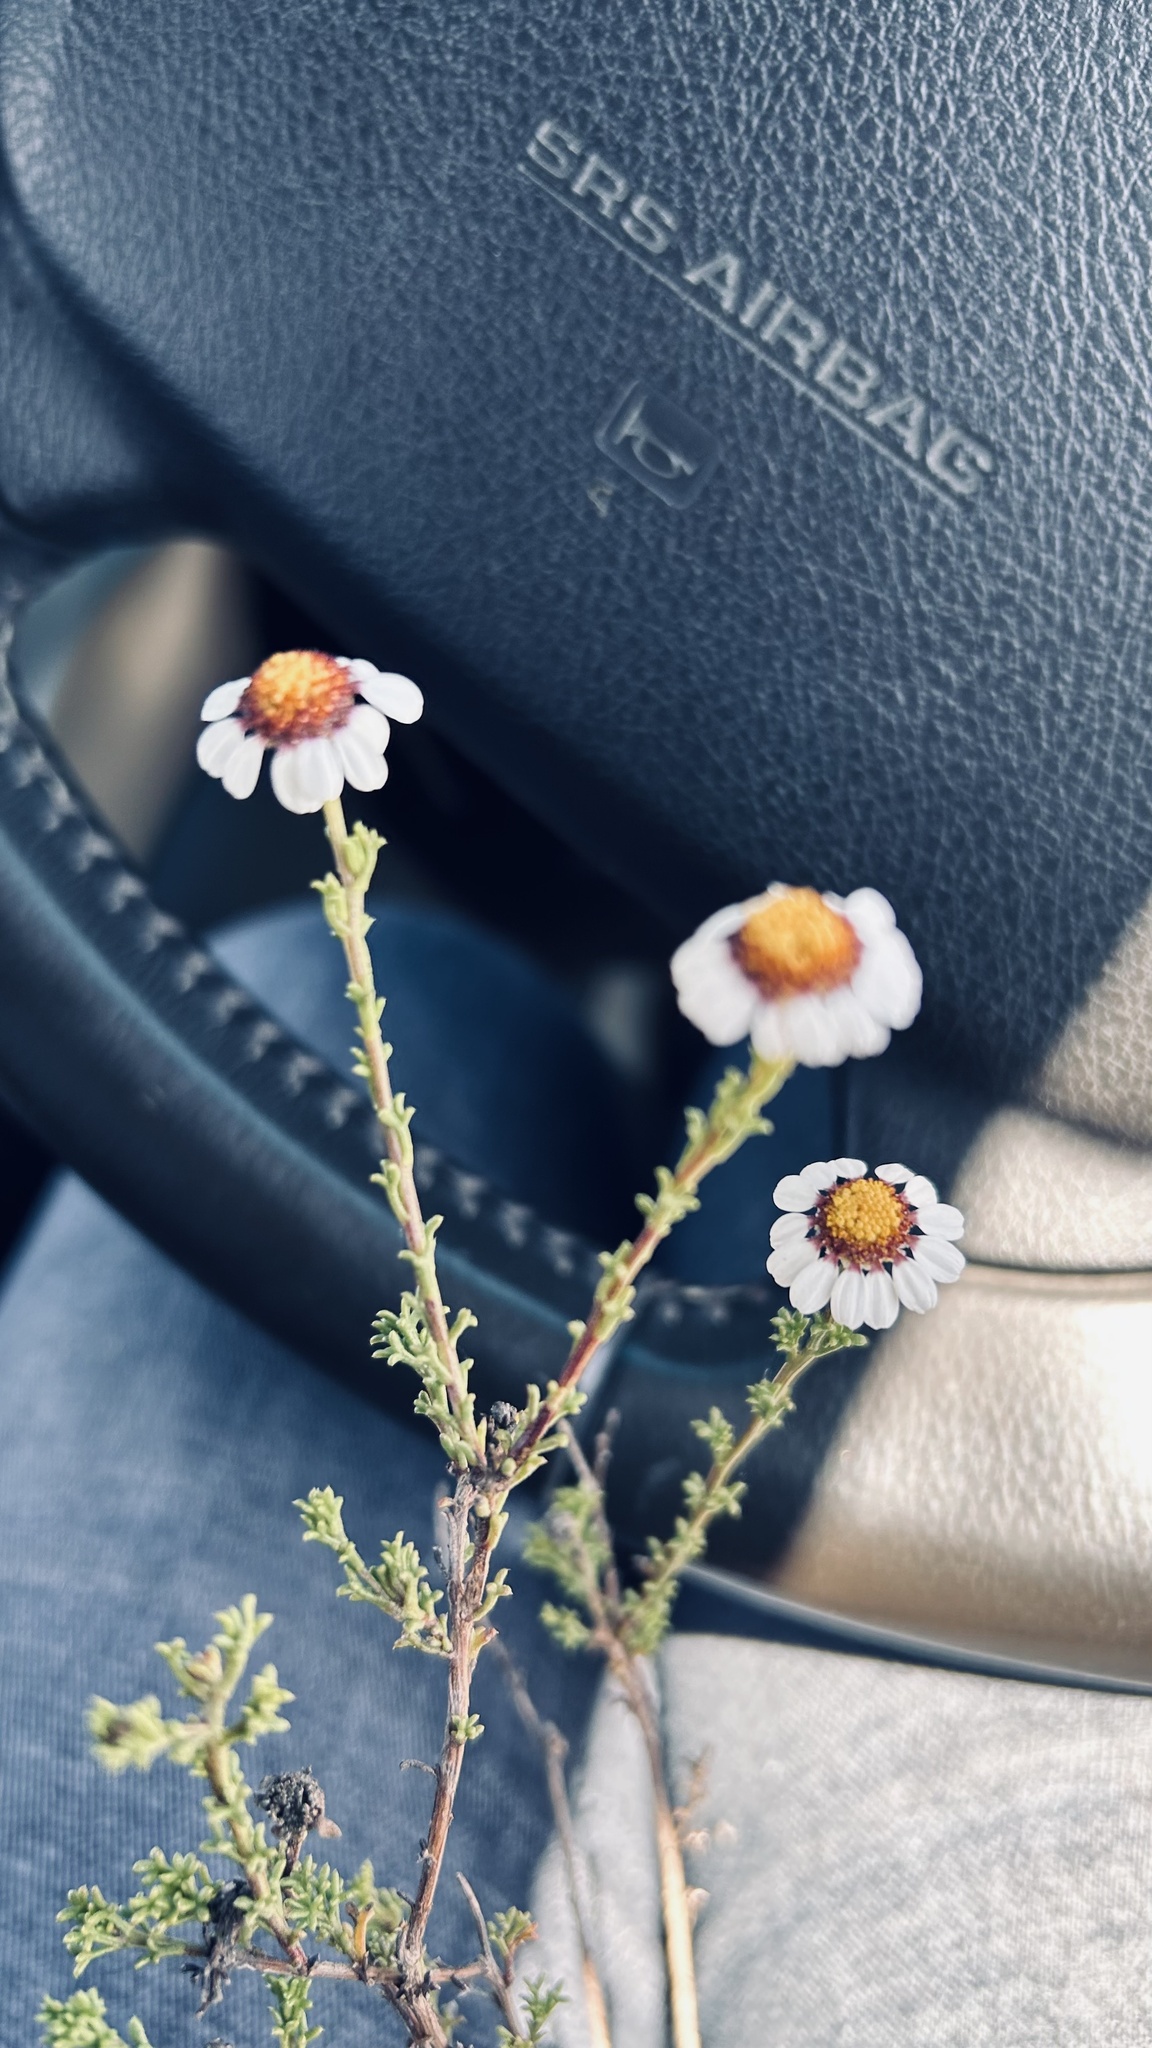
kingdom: Plantae
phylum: Tracheophyta
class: Magnoliopsida
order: Asterales
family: Asteraceae
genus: Cymbopappus
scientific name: Cymbopappus adenosolen
